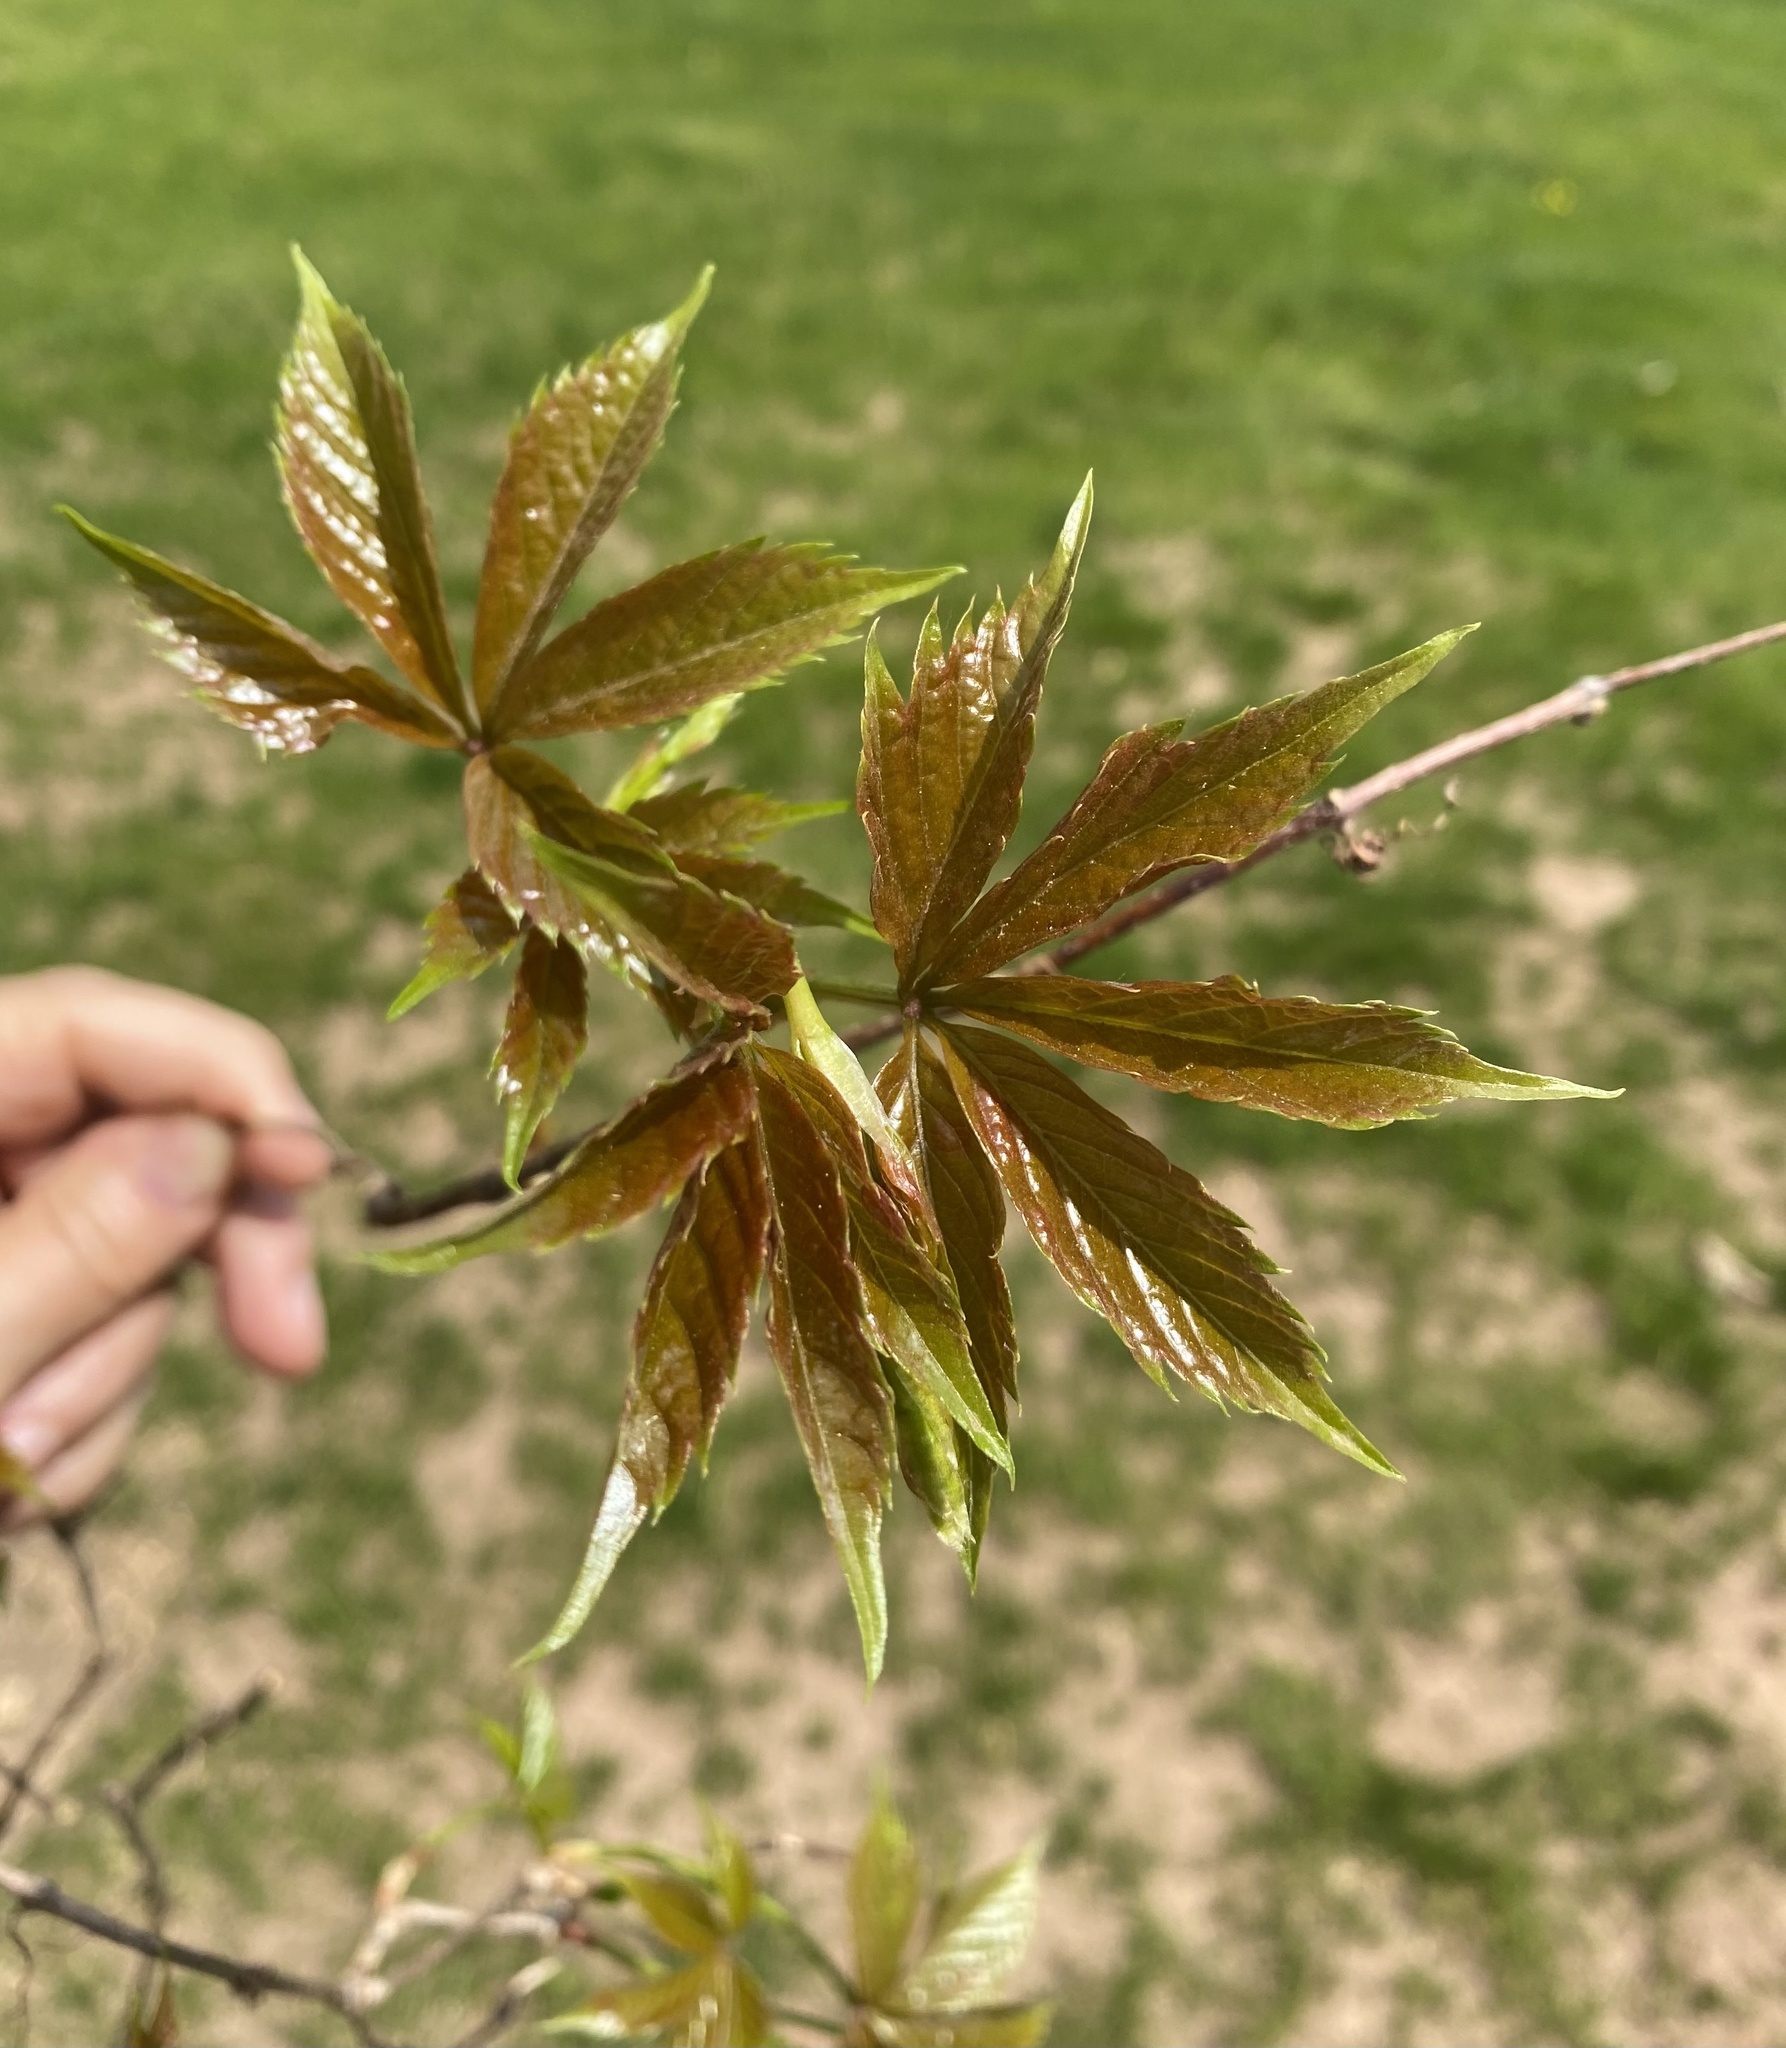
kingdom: Plantae
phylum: Tracheophyta
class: Magnoliopsida
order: Vitales
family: Vitaceae
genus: Parthenocissus
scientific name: Parthenocissus quinquefolia
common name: Virginia-creeper
